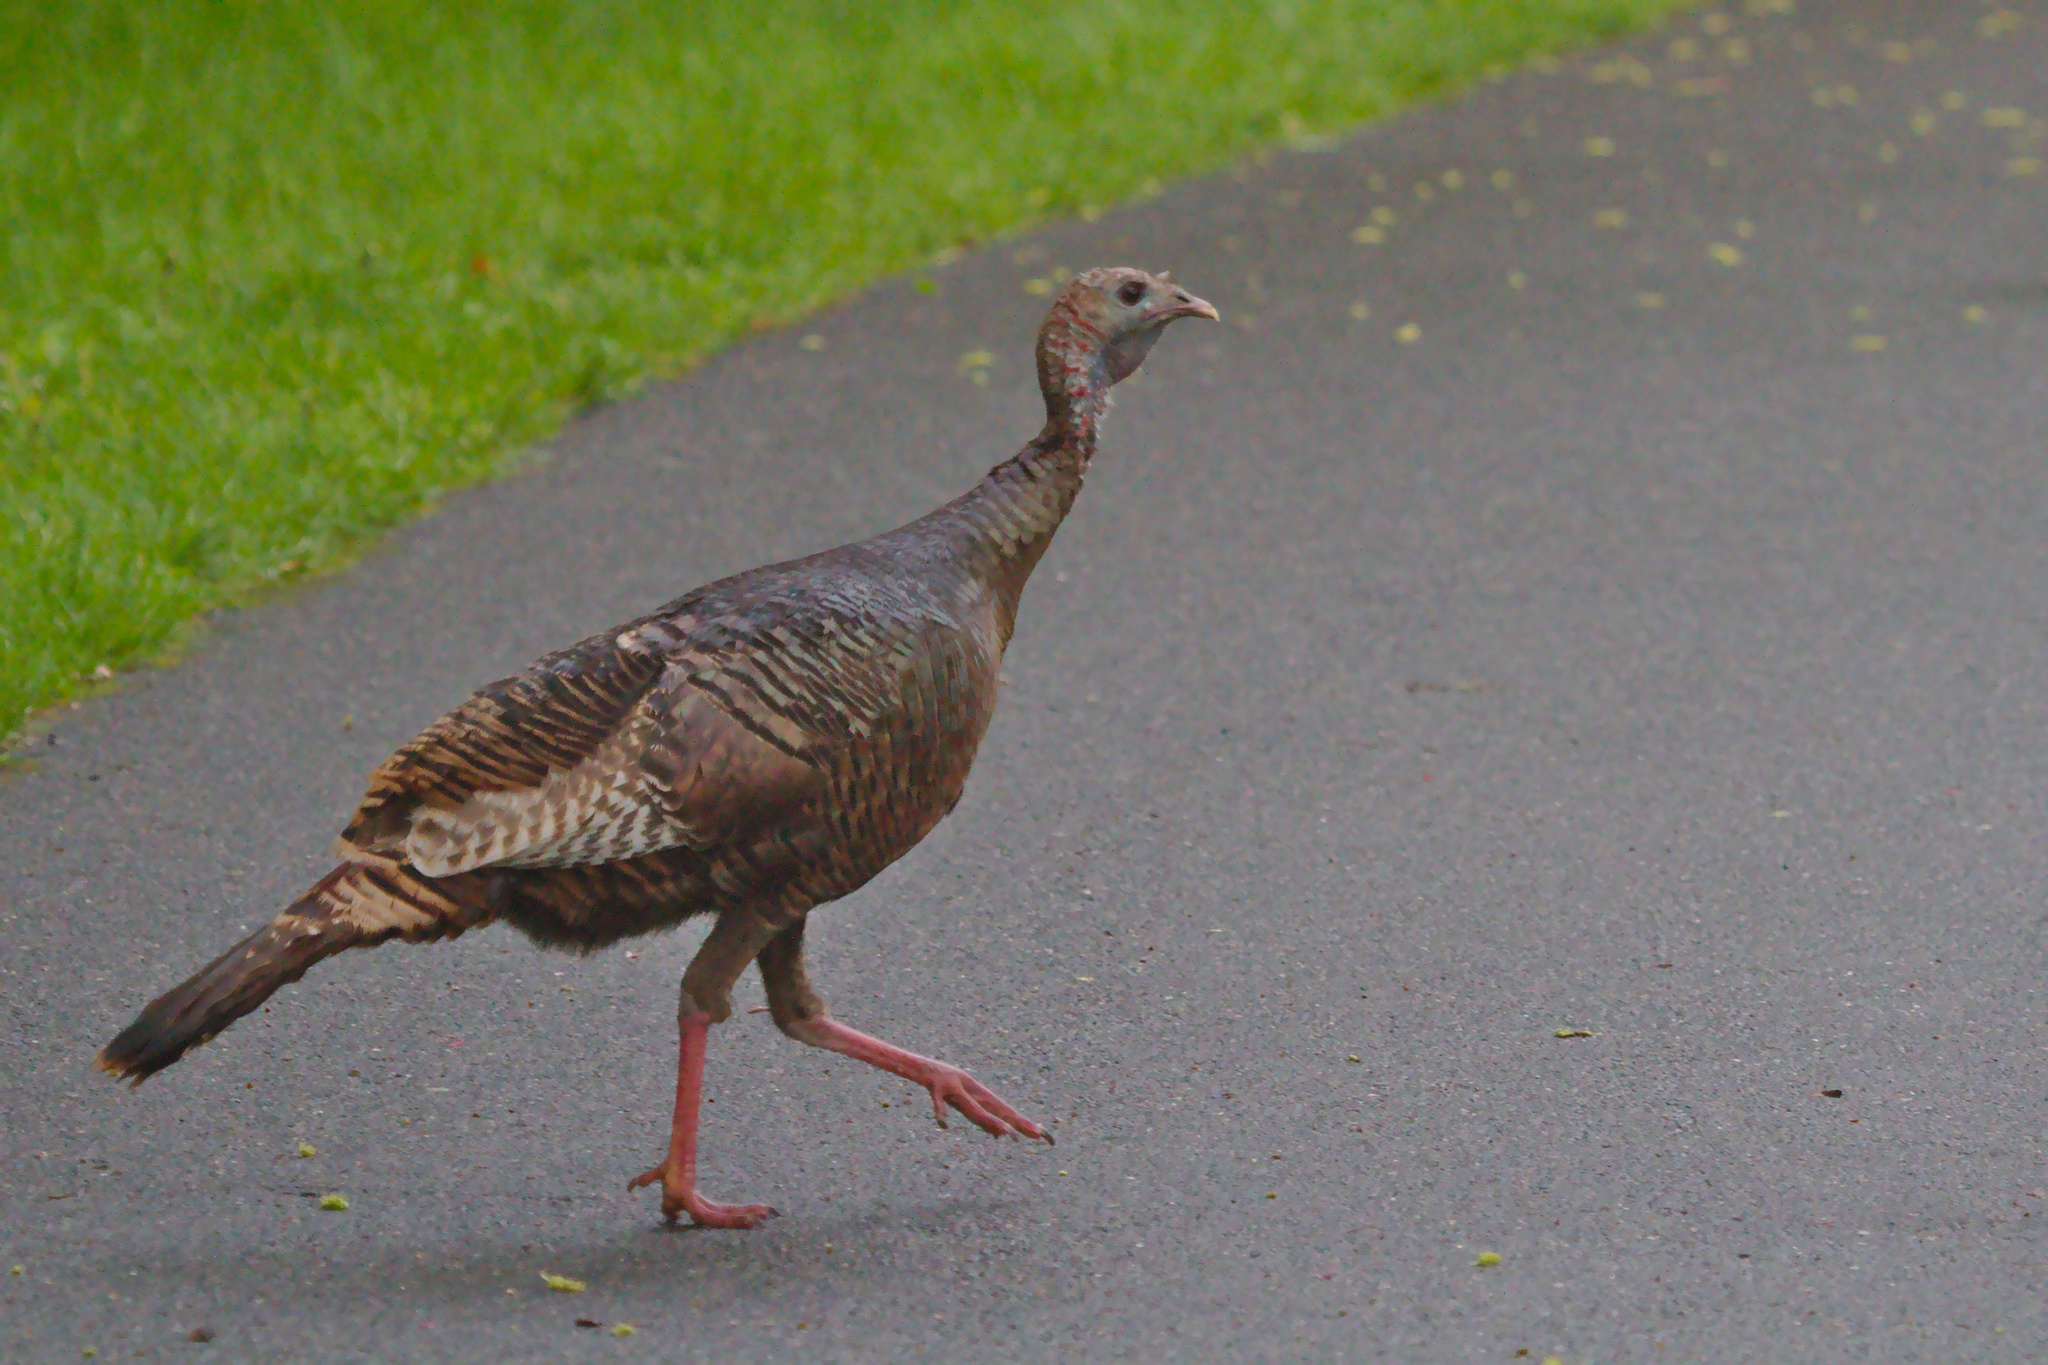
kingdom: Animalia
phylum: Chordata
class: Aves
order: Galliformes
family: Phasianidae
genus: Meleagris
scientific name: Meleagris gallopavo
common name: Wild turkey
